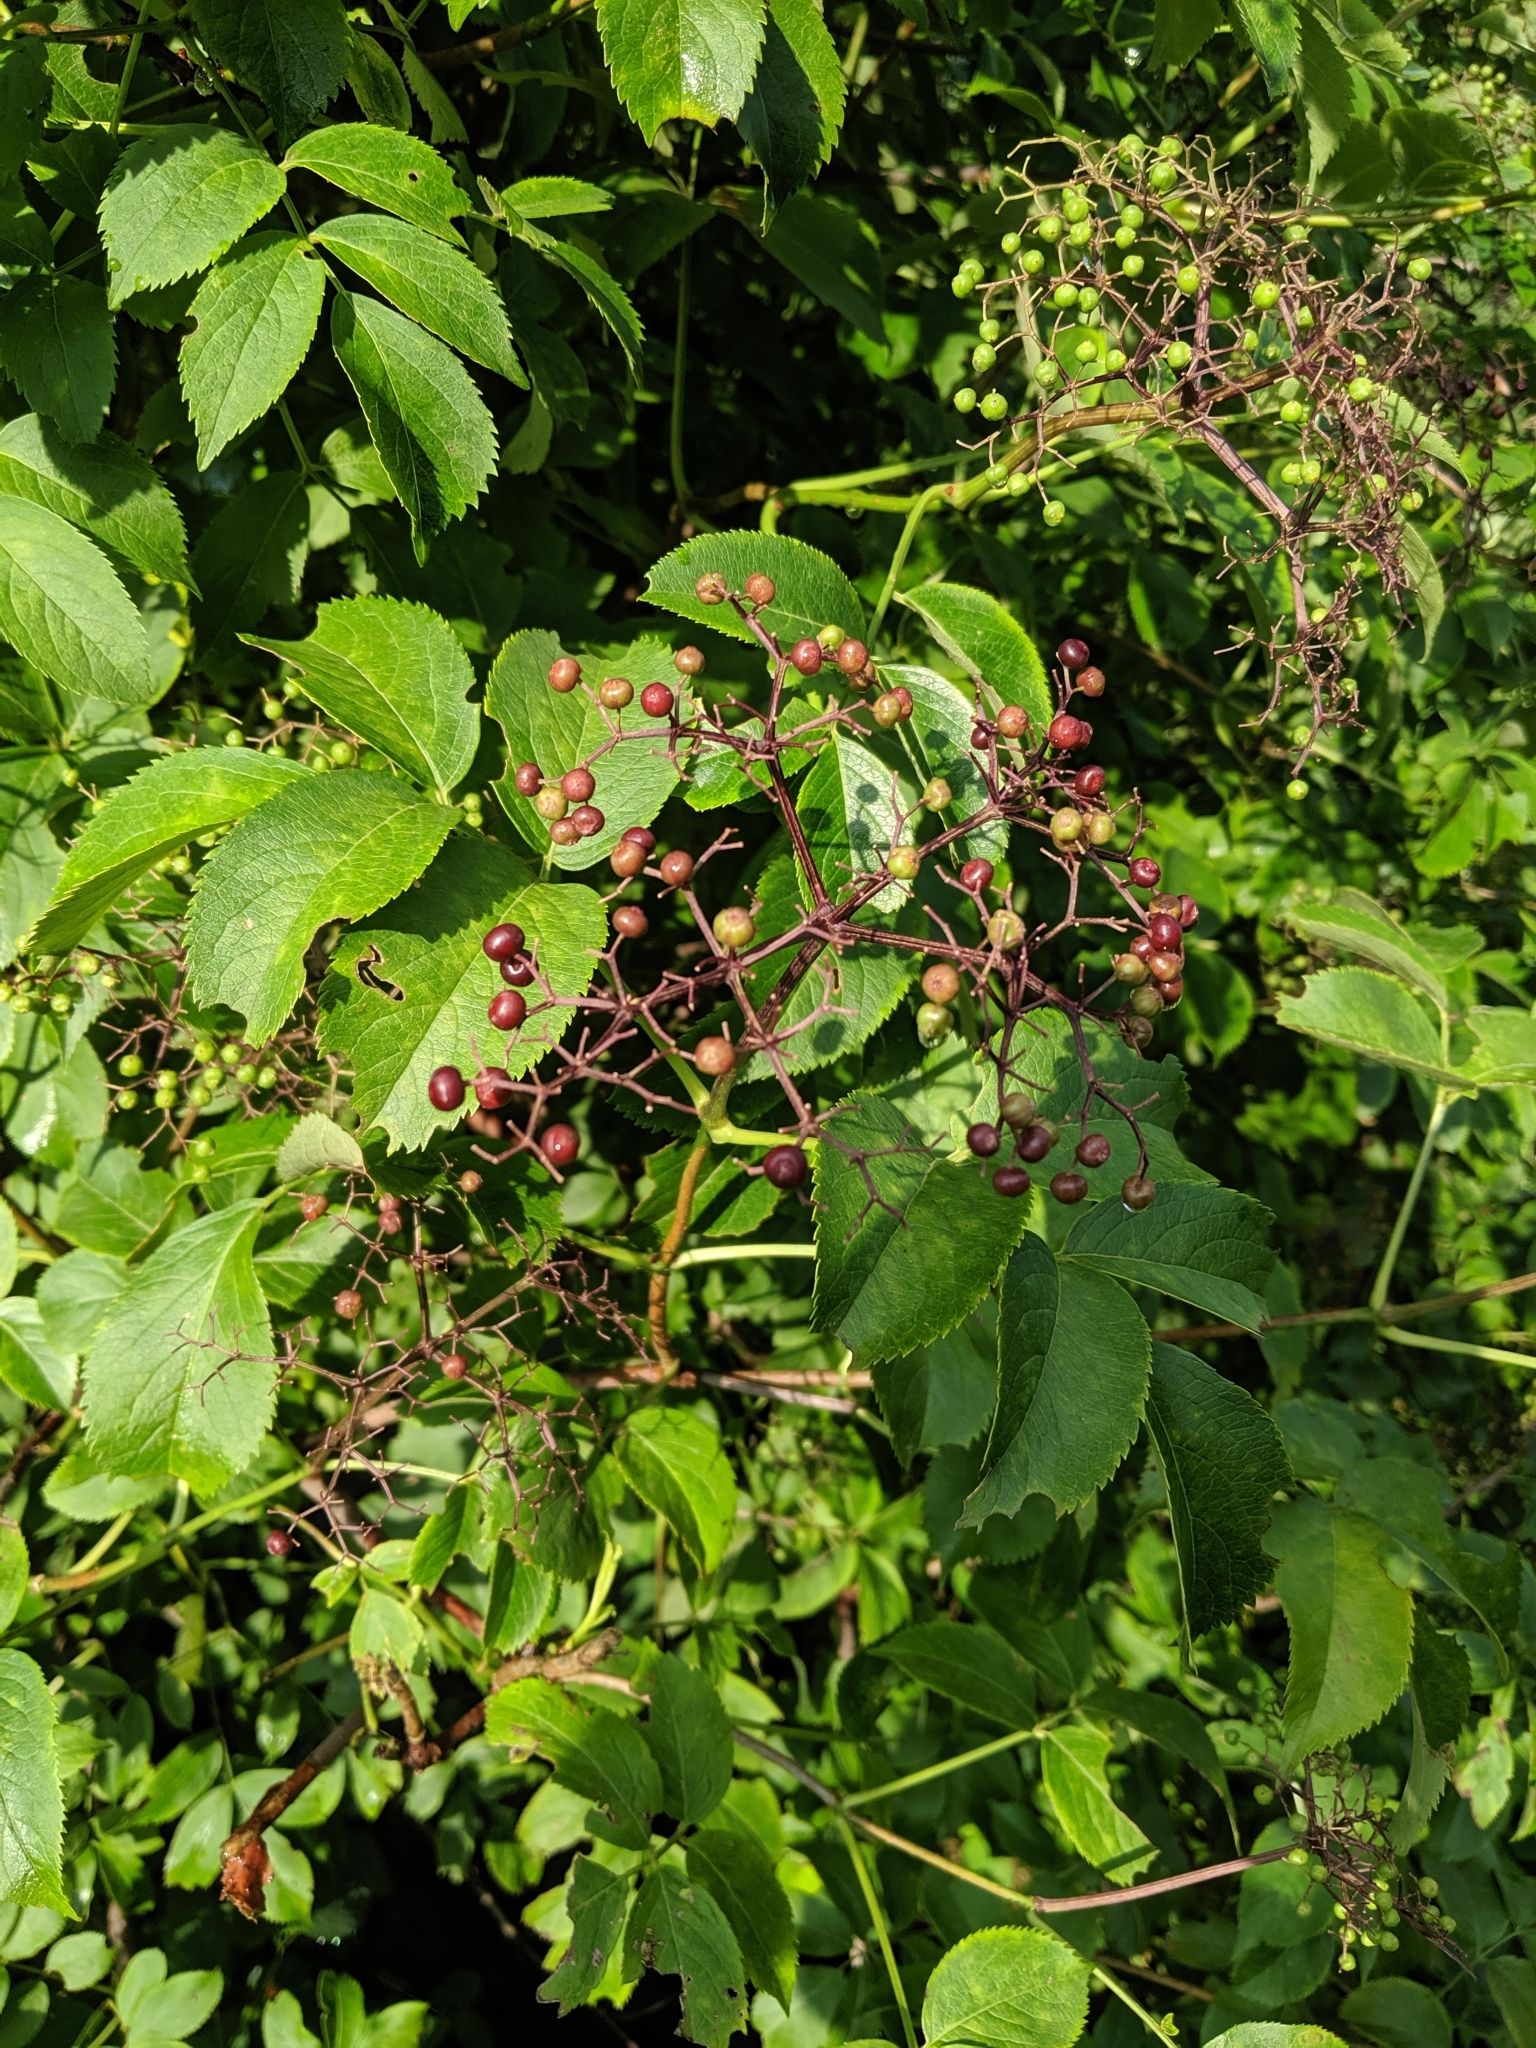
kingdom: Plantae
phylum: Tracheophyta
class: Magnoliopsida
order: Dipsacales
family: Viburnaceae
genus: Sambucus
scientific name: Sambucus canadensis
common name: American elder
